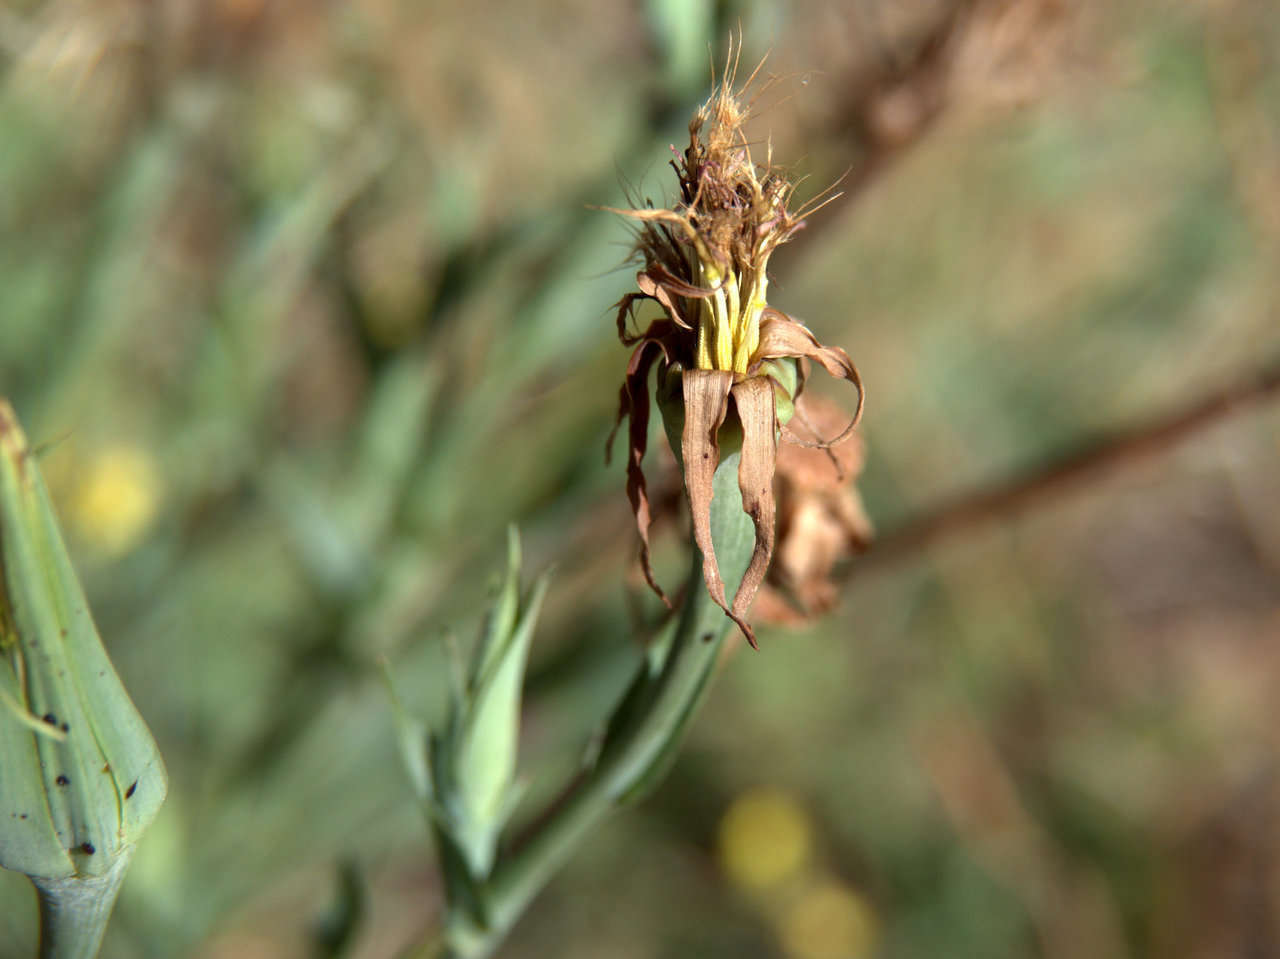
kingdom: Plantae
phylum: Tracheophyta
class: Magnoliopsida
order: Asterales
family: Asteraceae
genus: Tragopogon
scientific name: Tragopogon porrifolius
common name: Salsify
